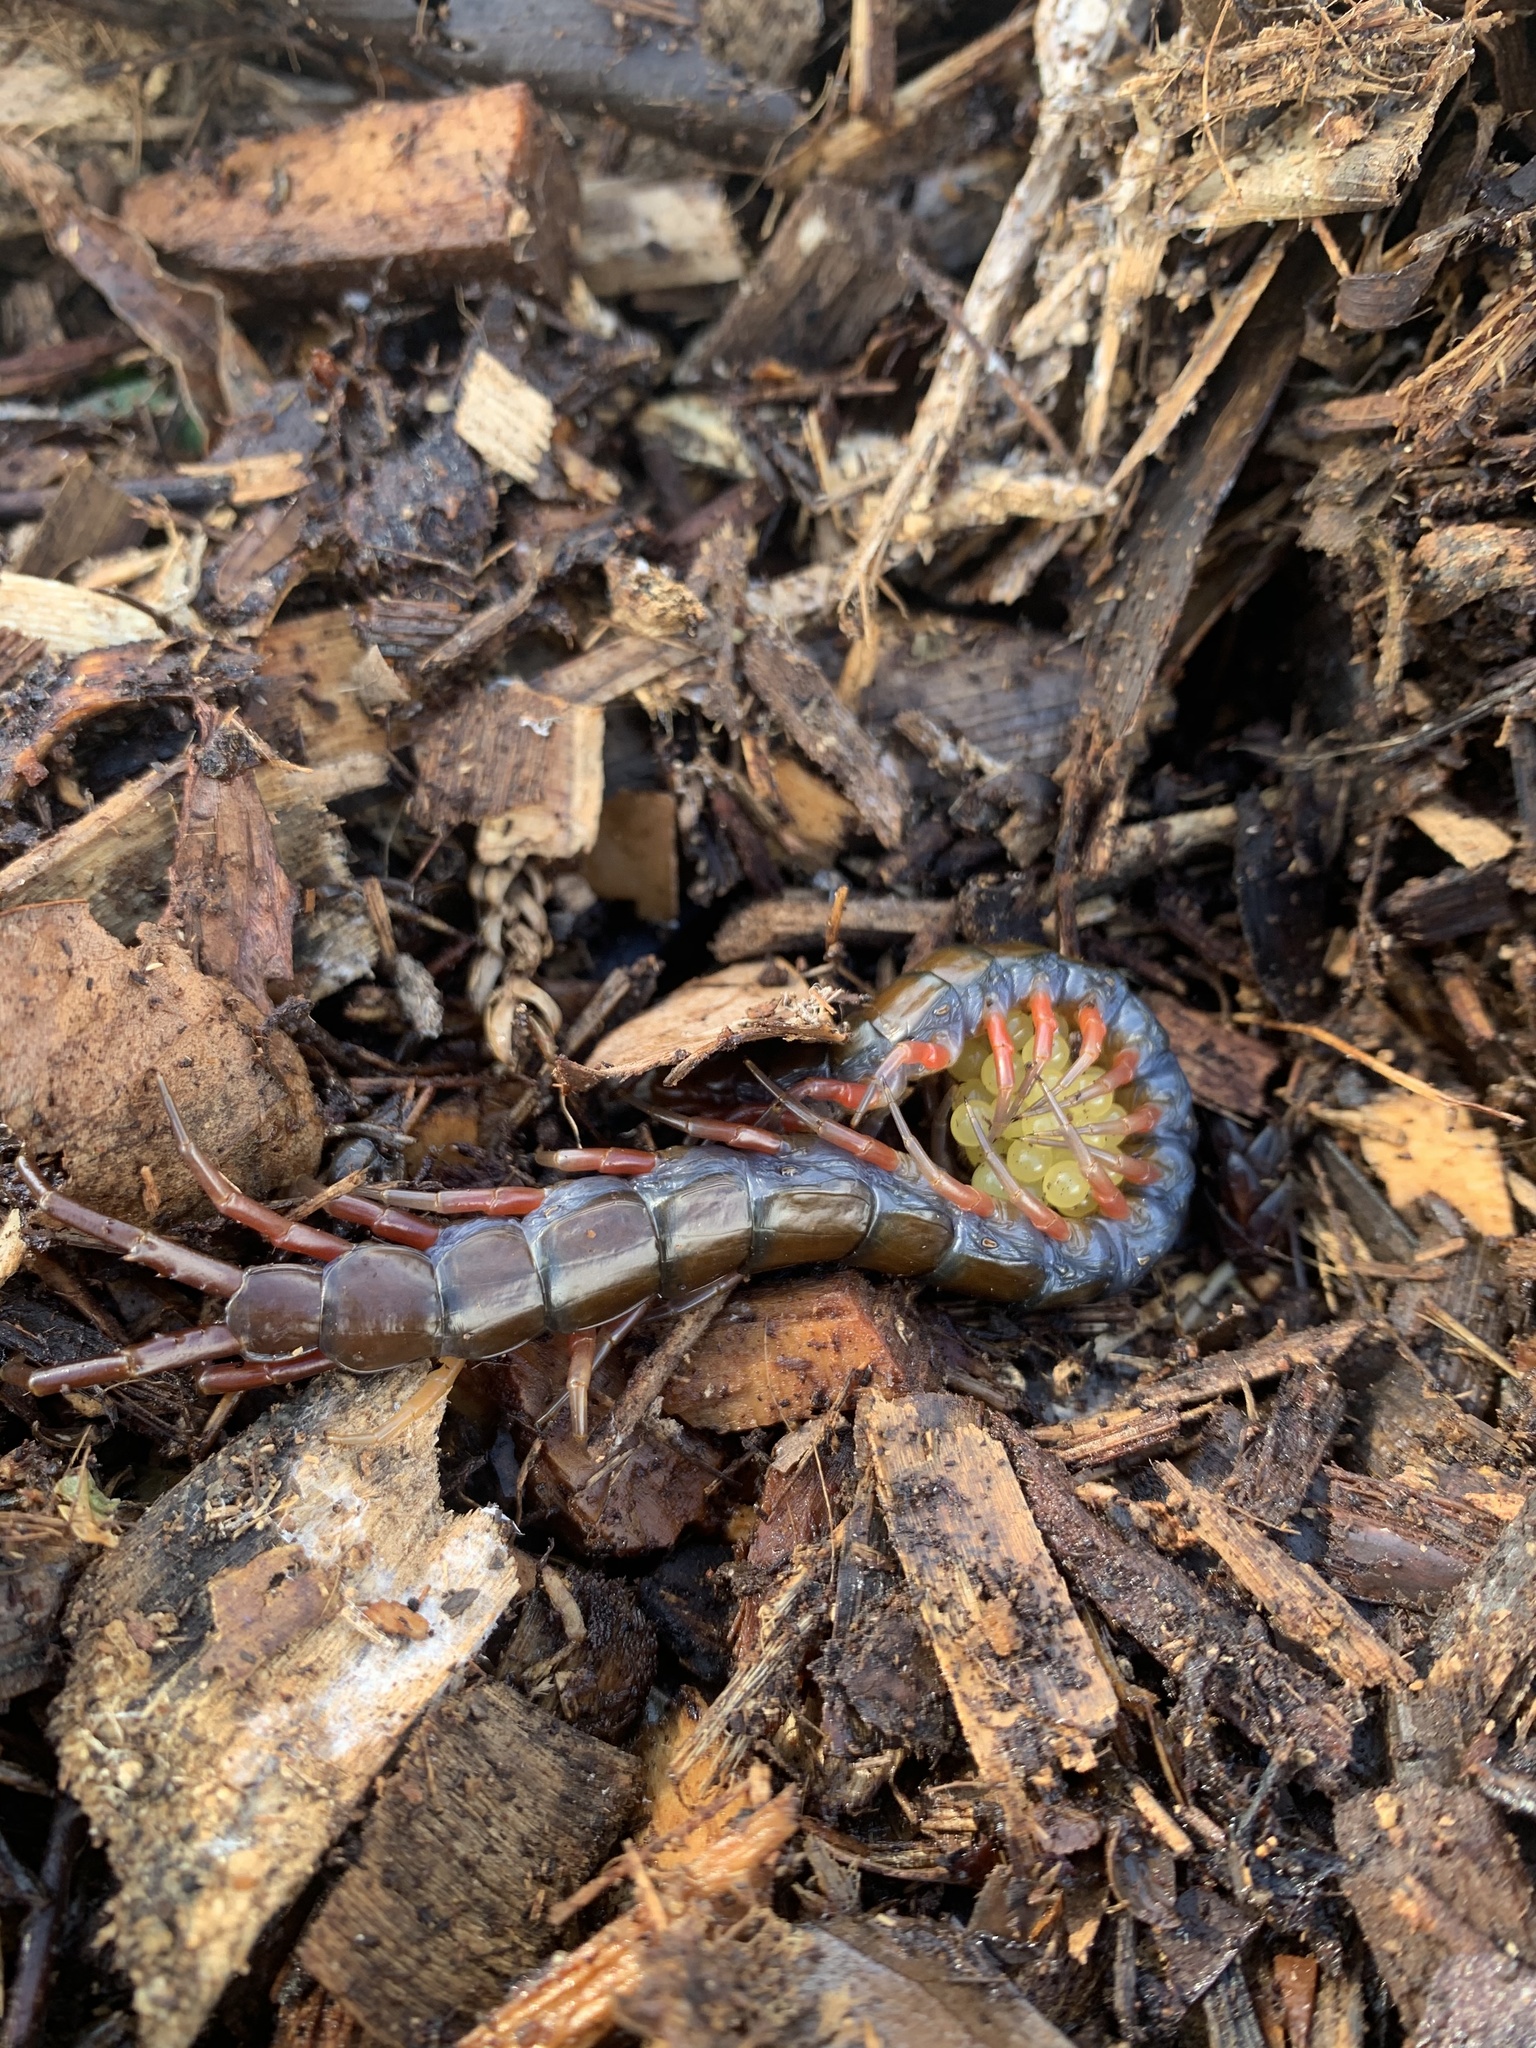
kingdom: Animalia
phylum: Arthropoda
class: Chilopoda
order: Scolopendromorpha
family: Scolopendridae
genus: Scolopendra
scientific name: Scolopendra subspinipes
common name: Centipede
